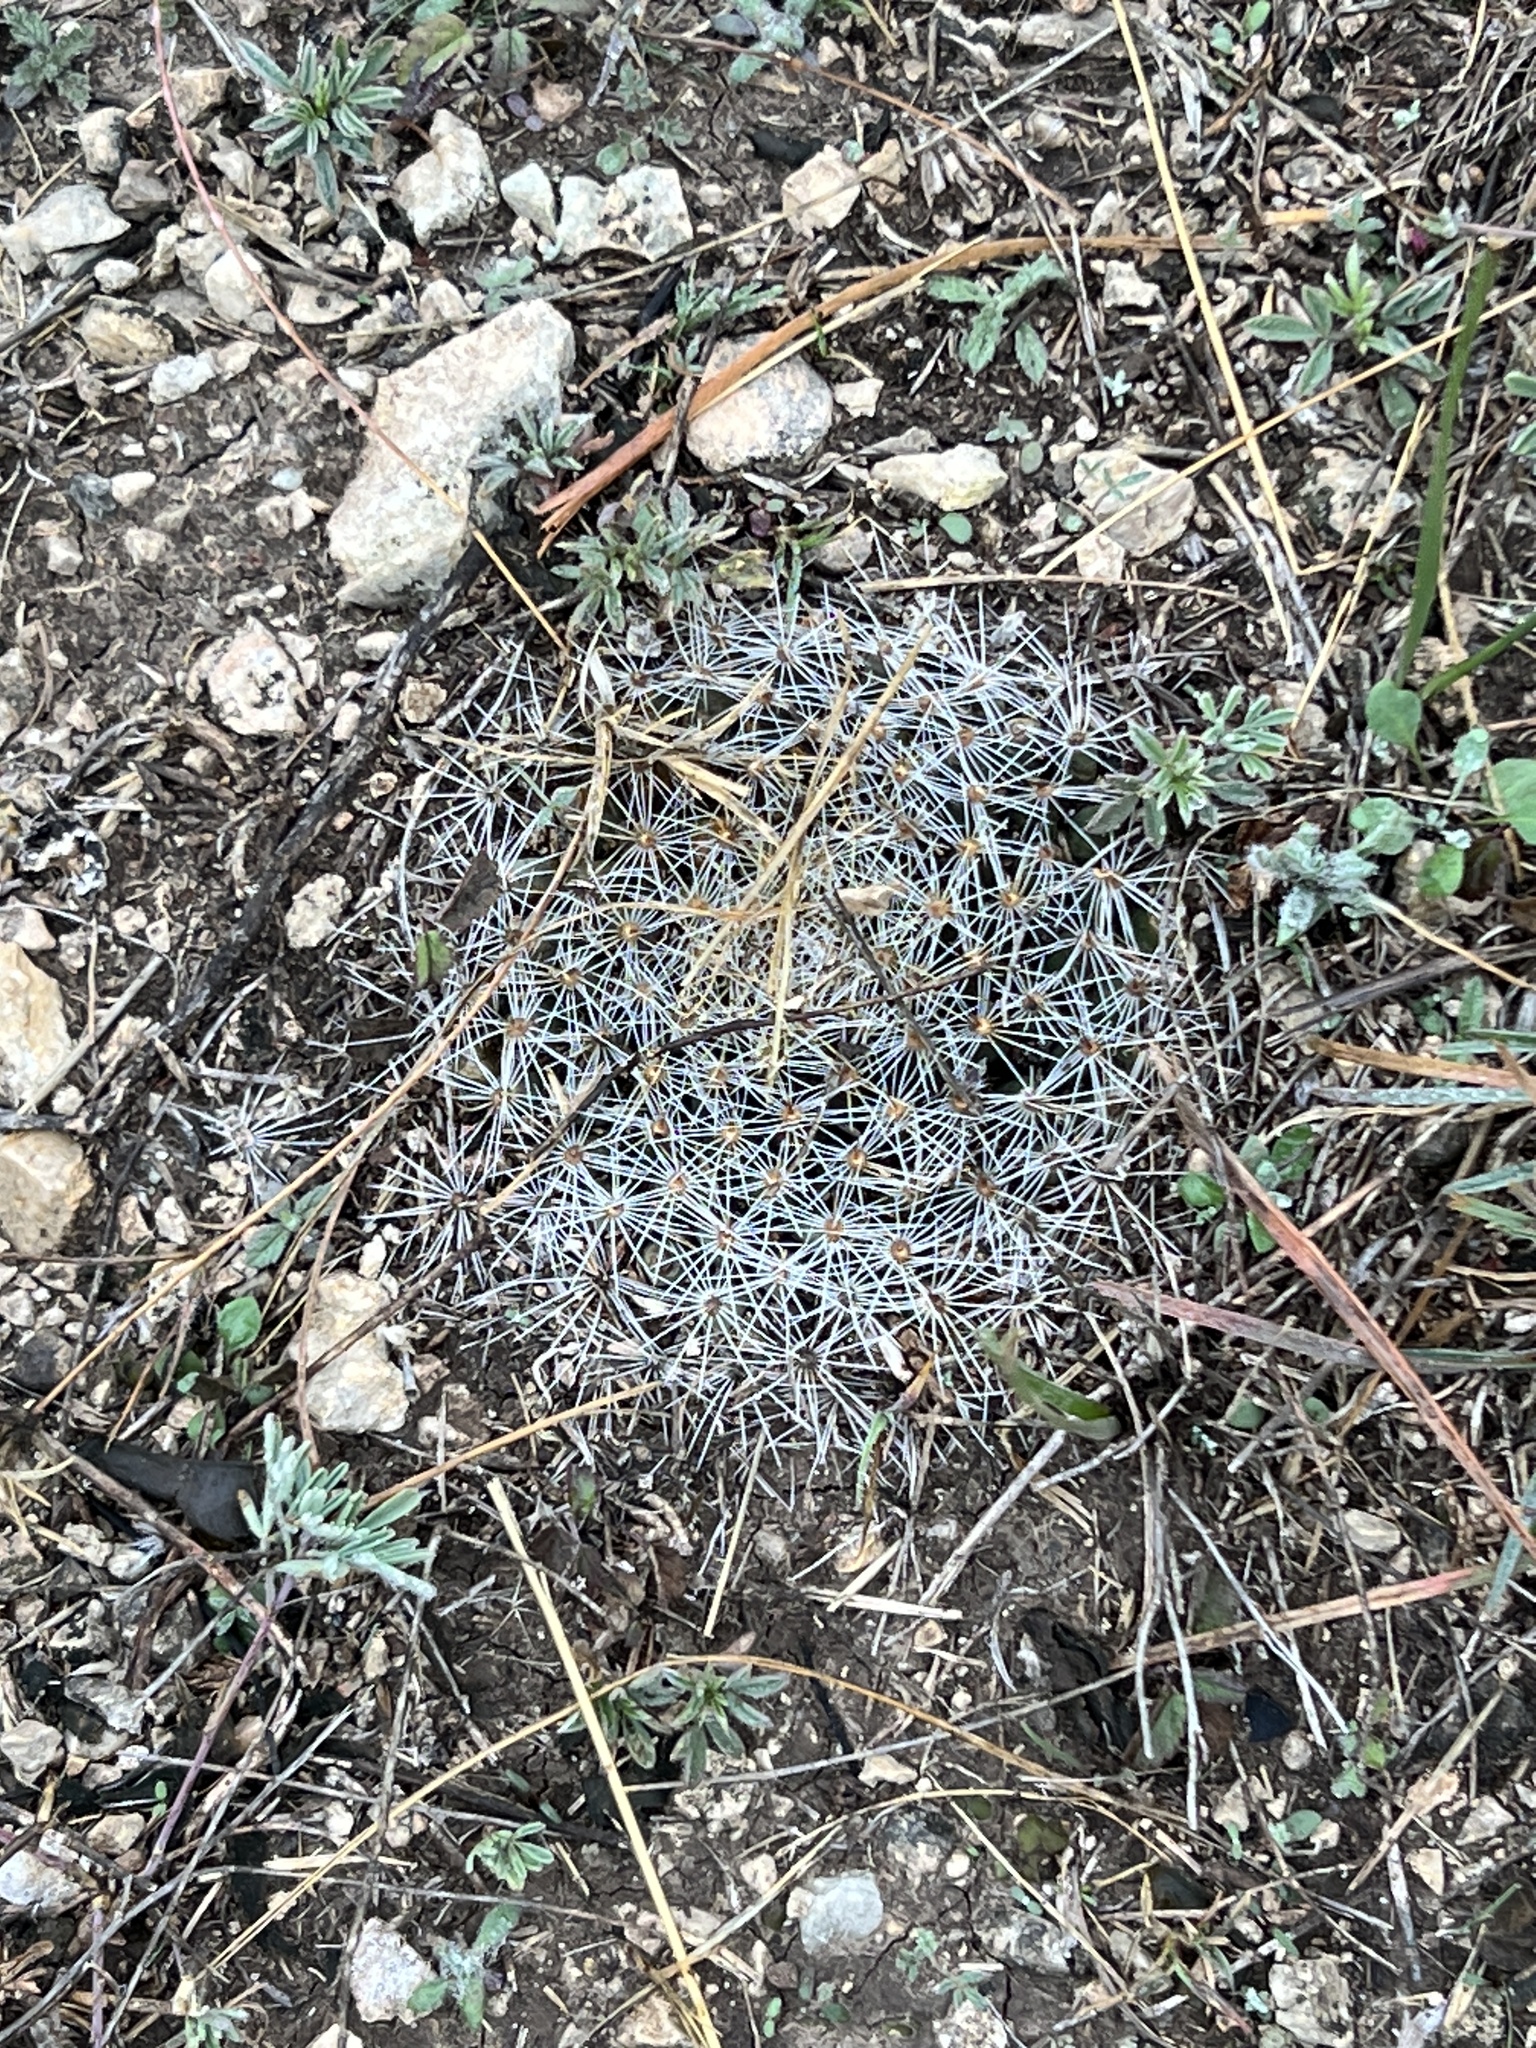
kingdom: Plantae
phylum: Tracheophyta
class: Magnoliopsida
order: Caryophyllales
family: Cactaceae
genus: Mammillaria
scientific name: Mammillaria heyderi
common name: Little nipple cactus
